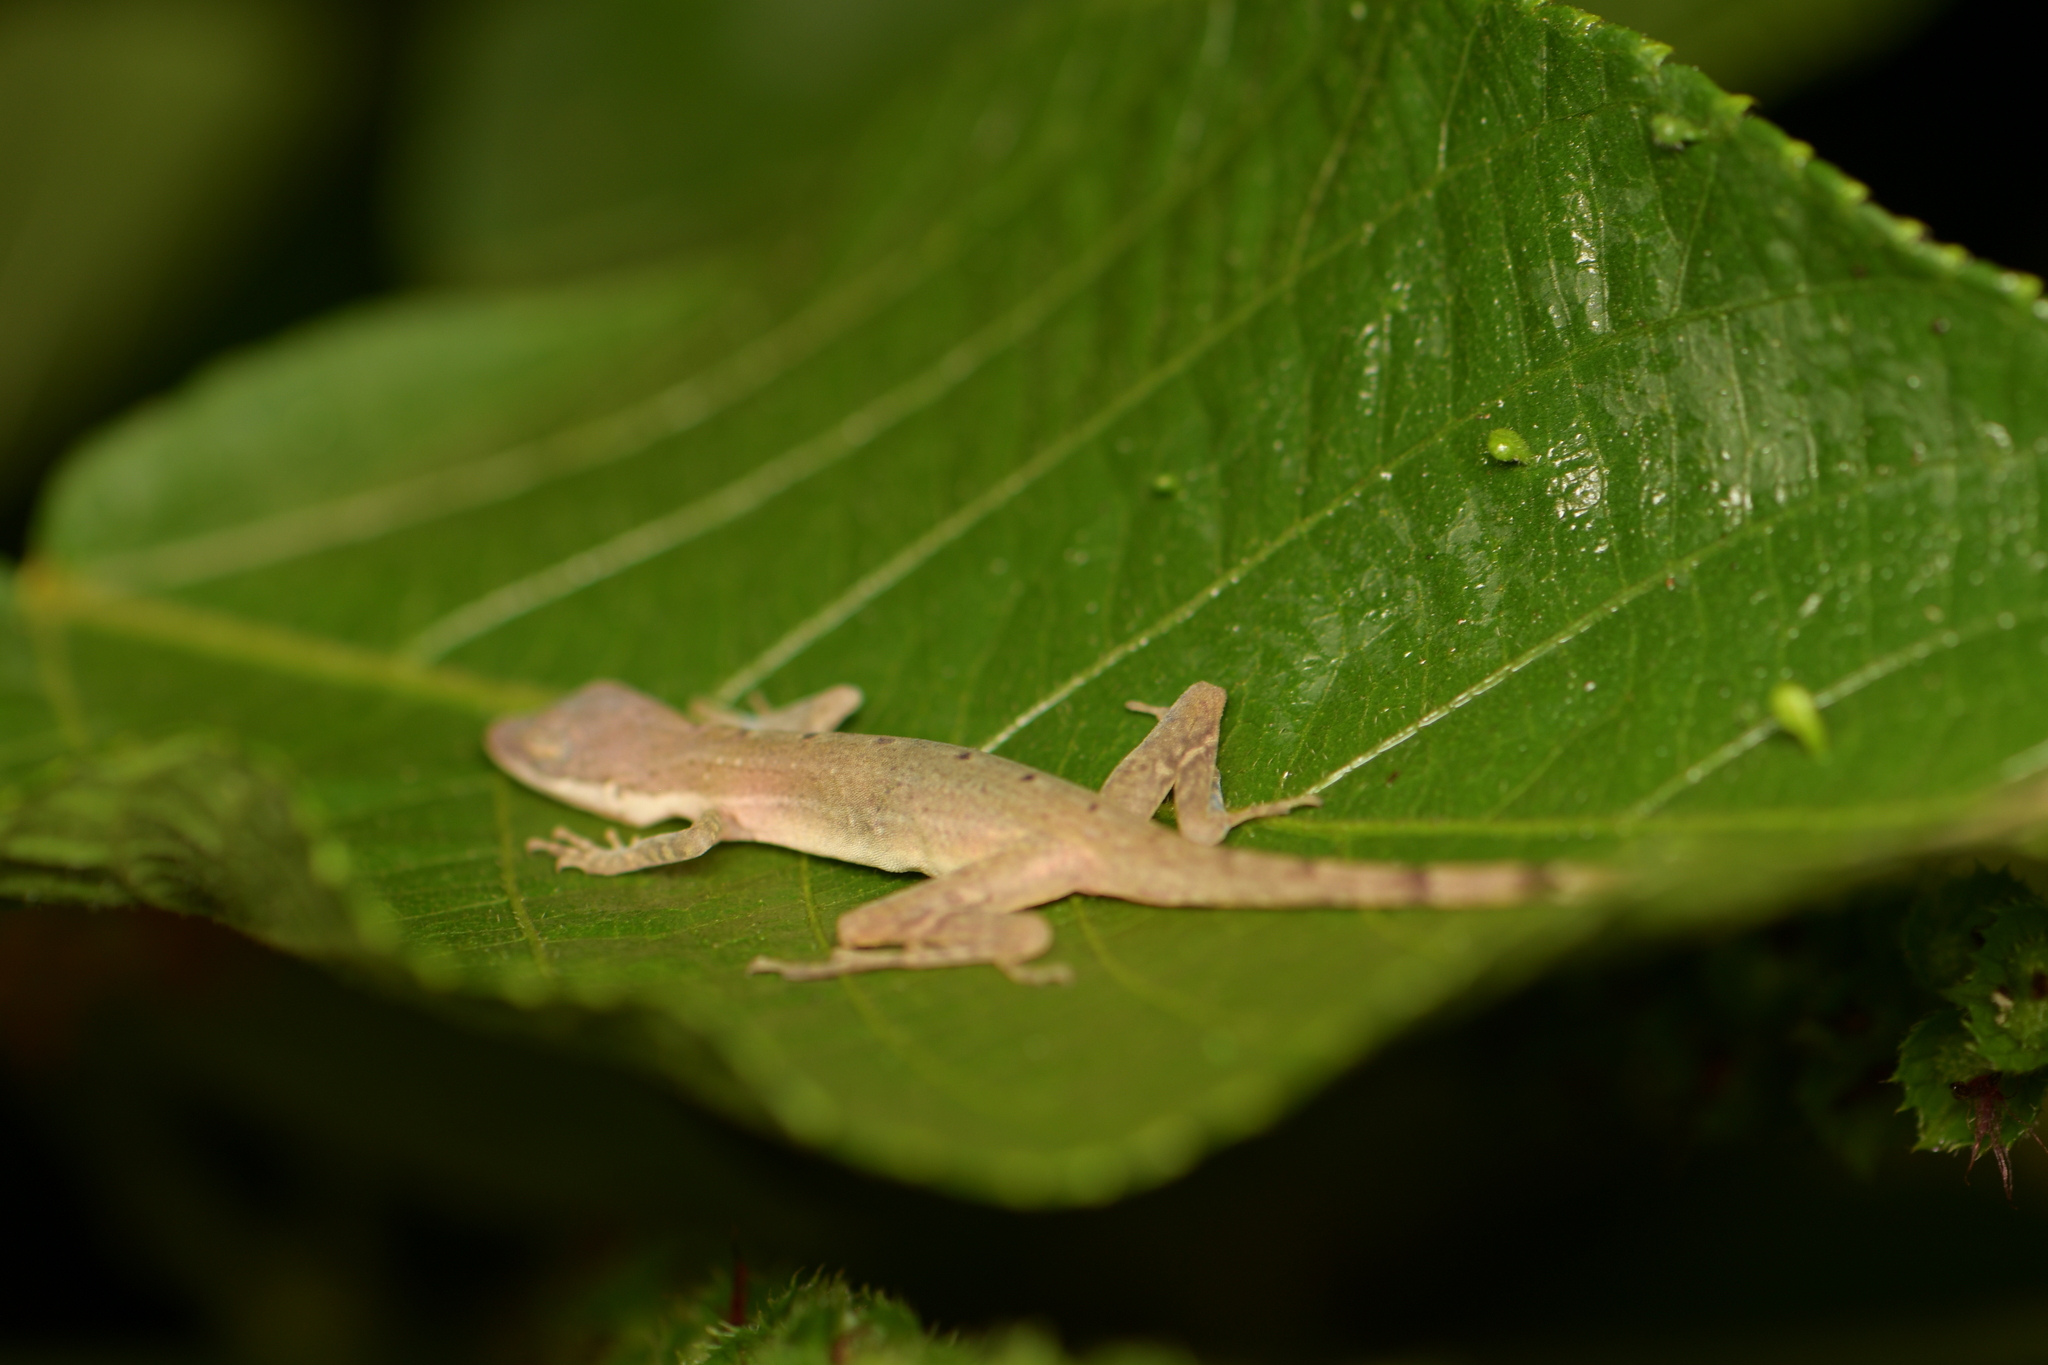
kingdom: Animalia
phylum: Chordata
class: Squamata
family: Dactyloidae
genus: Anolis
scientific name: Anolis limifrons
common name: Border anole
